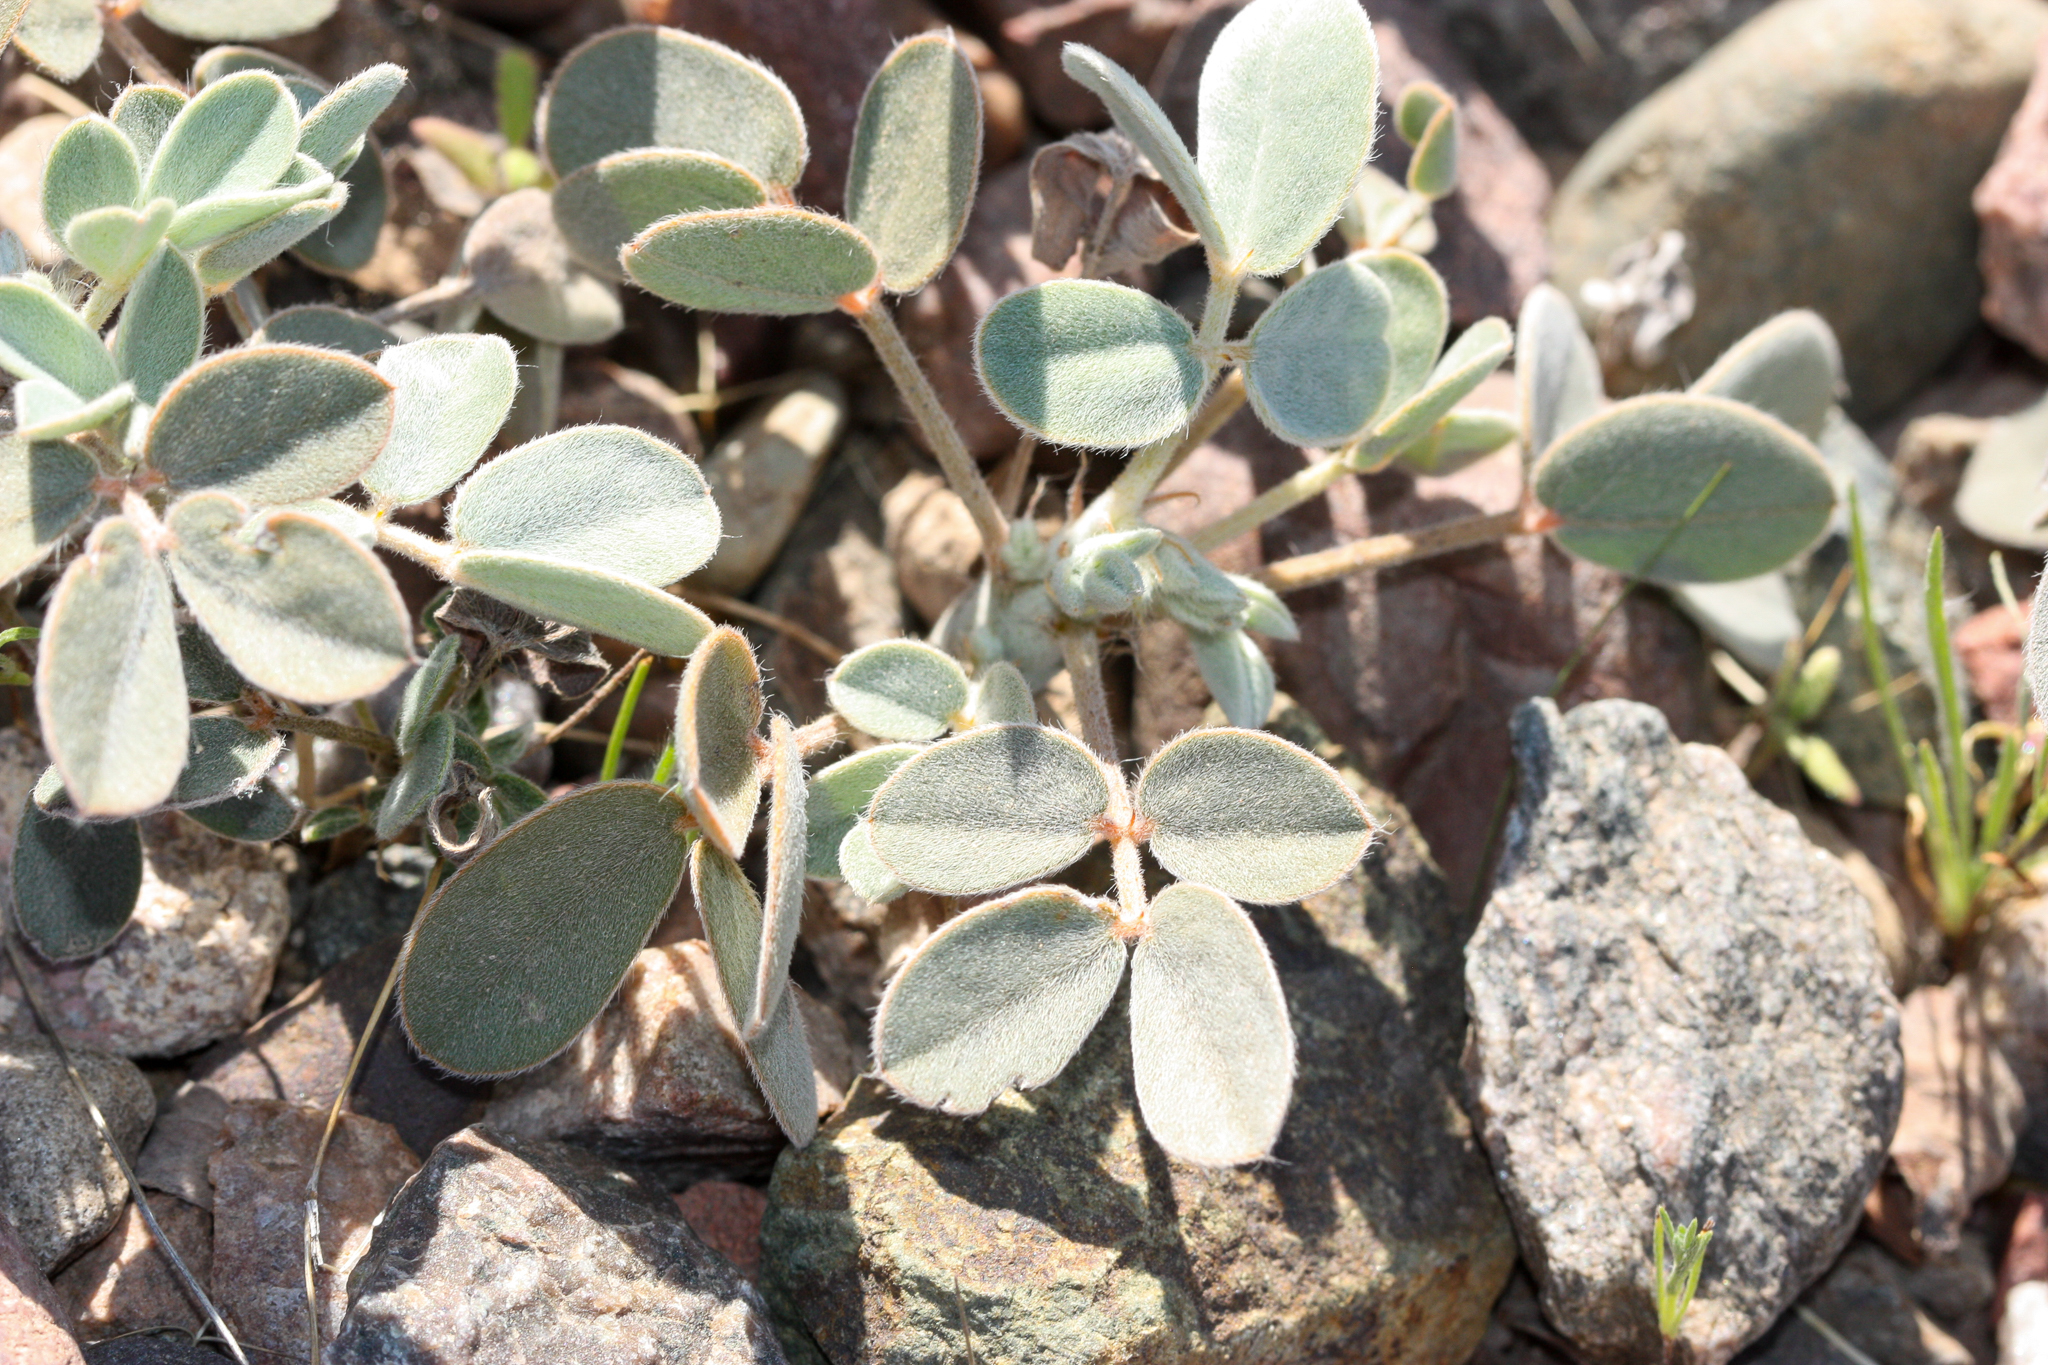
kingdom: Plantae
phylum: Tracheophyta
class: Magnoliopsida
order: Fabales
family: Fabaceae
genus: Senna
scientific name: Senna covesii
